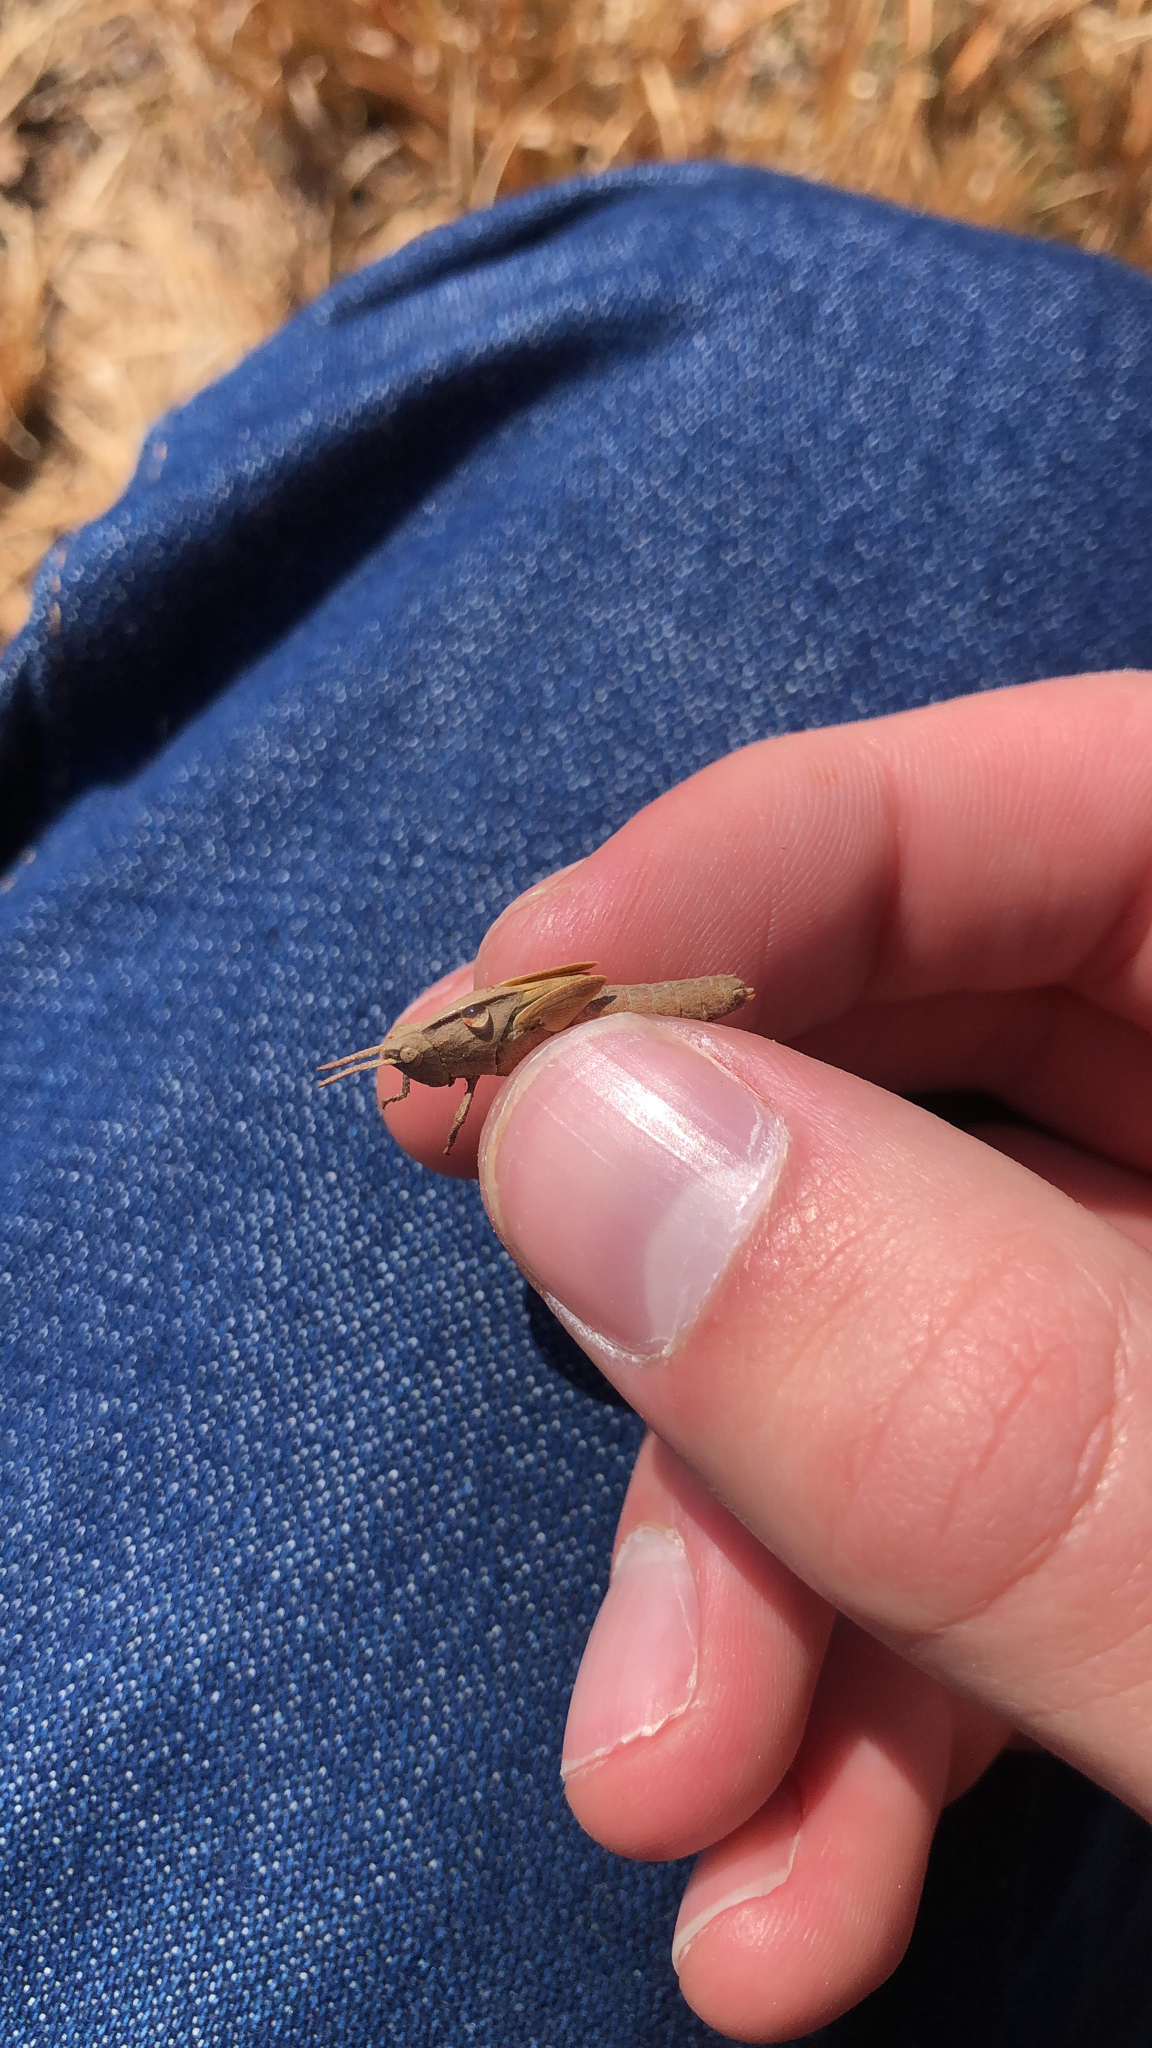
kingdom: Animalia
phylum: Arthropoda
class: Insecta
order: Orthoptera
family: Acrididae
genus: Chortophaga
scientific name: Chortophaga viridifasciata
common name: Green-striped grasshopper
